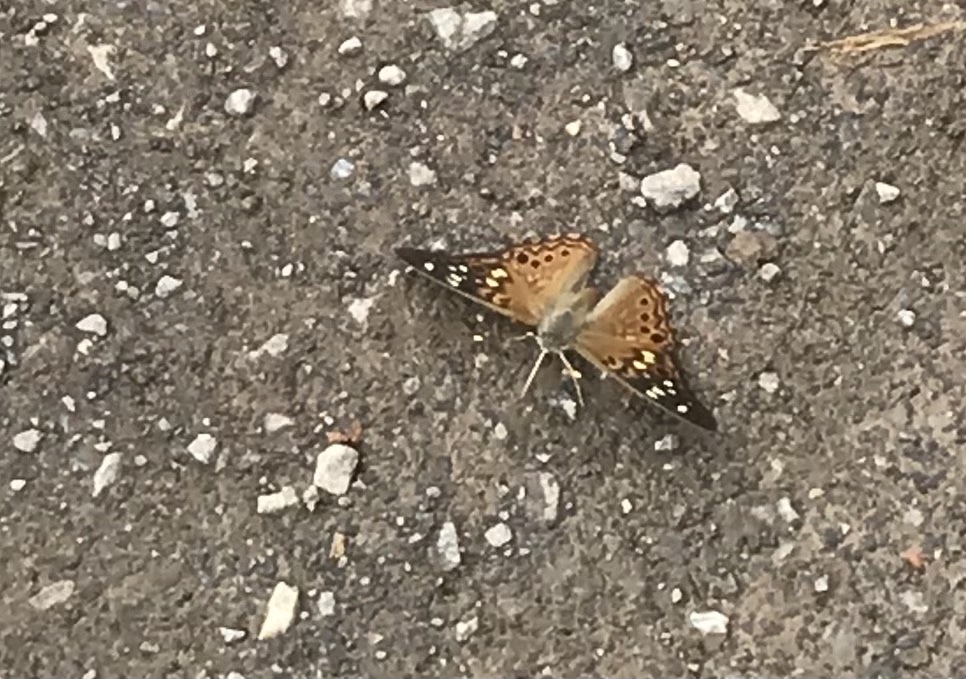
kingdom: Animalia
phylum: Arthropoda
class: Insecta
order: Lepidoptera
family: Nymphalidae
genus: Asterocampa
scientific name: Asterocampa celtis
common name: Hackberry emperor
